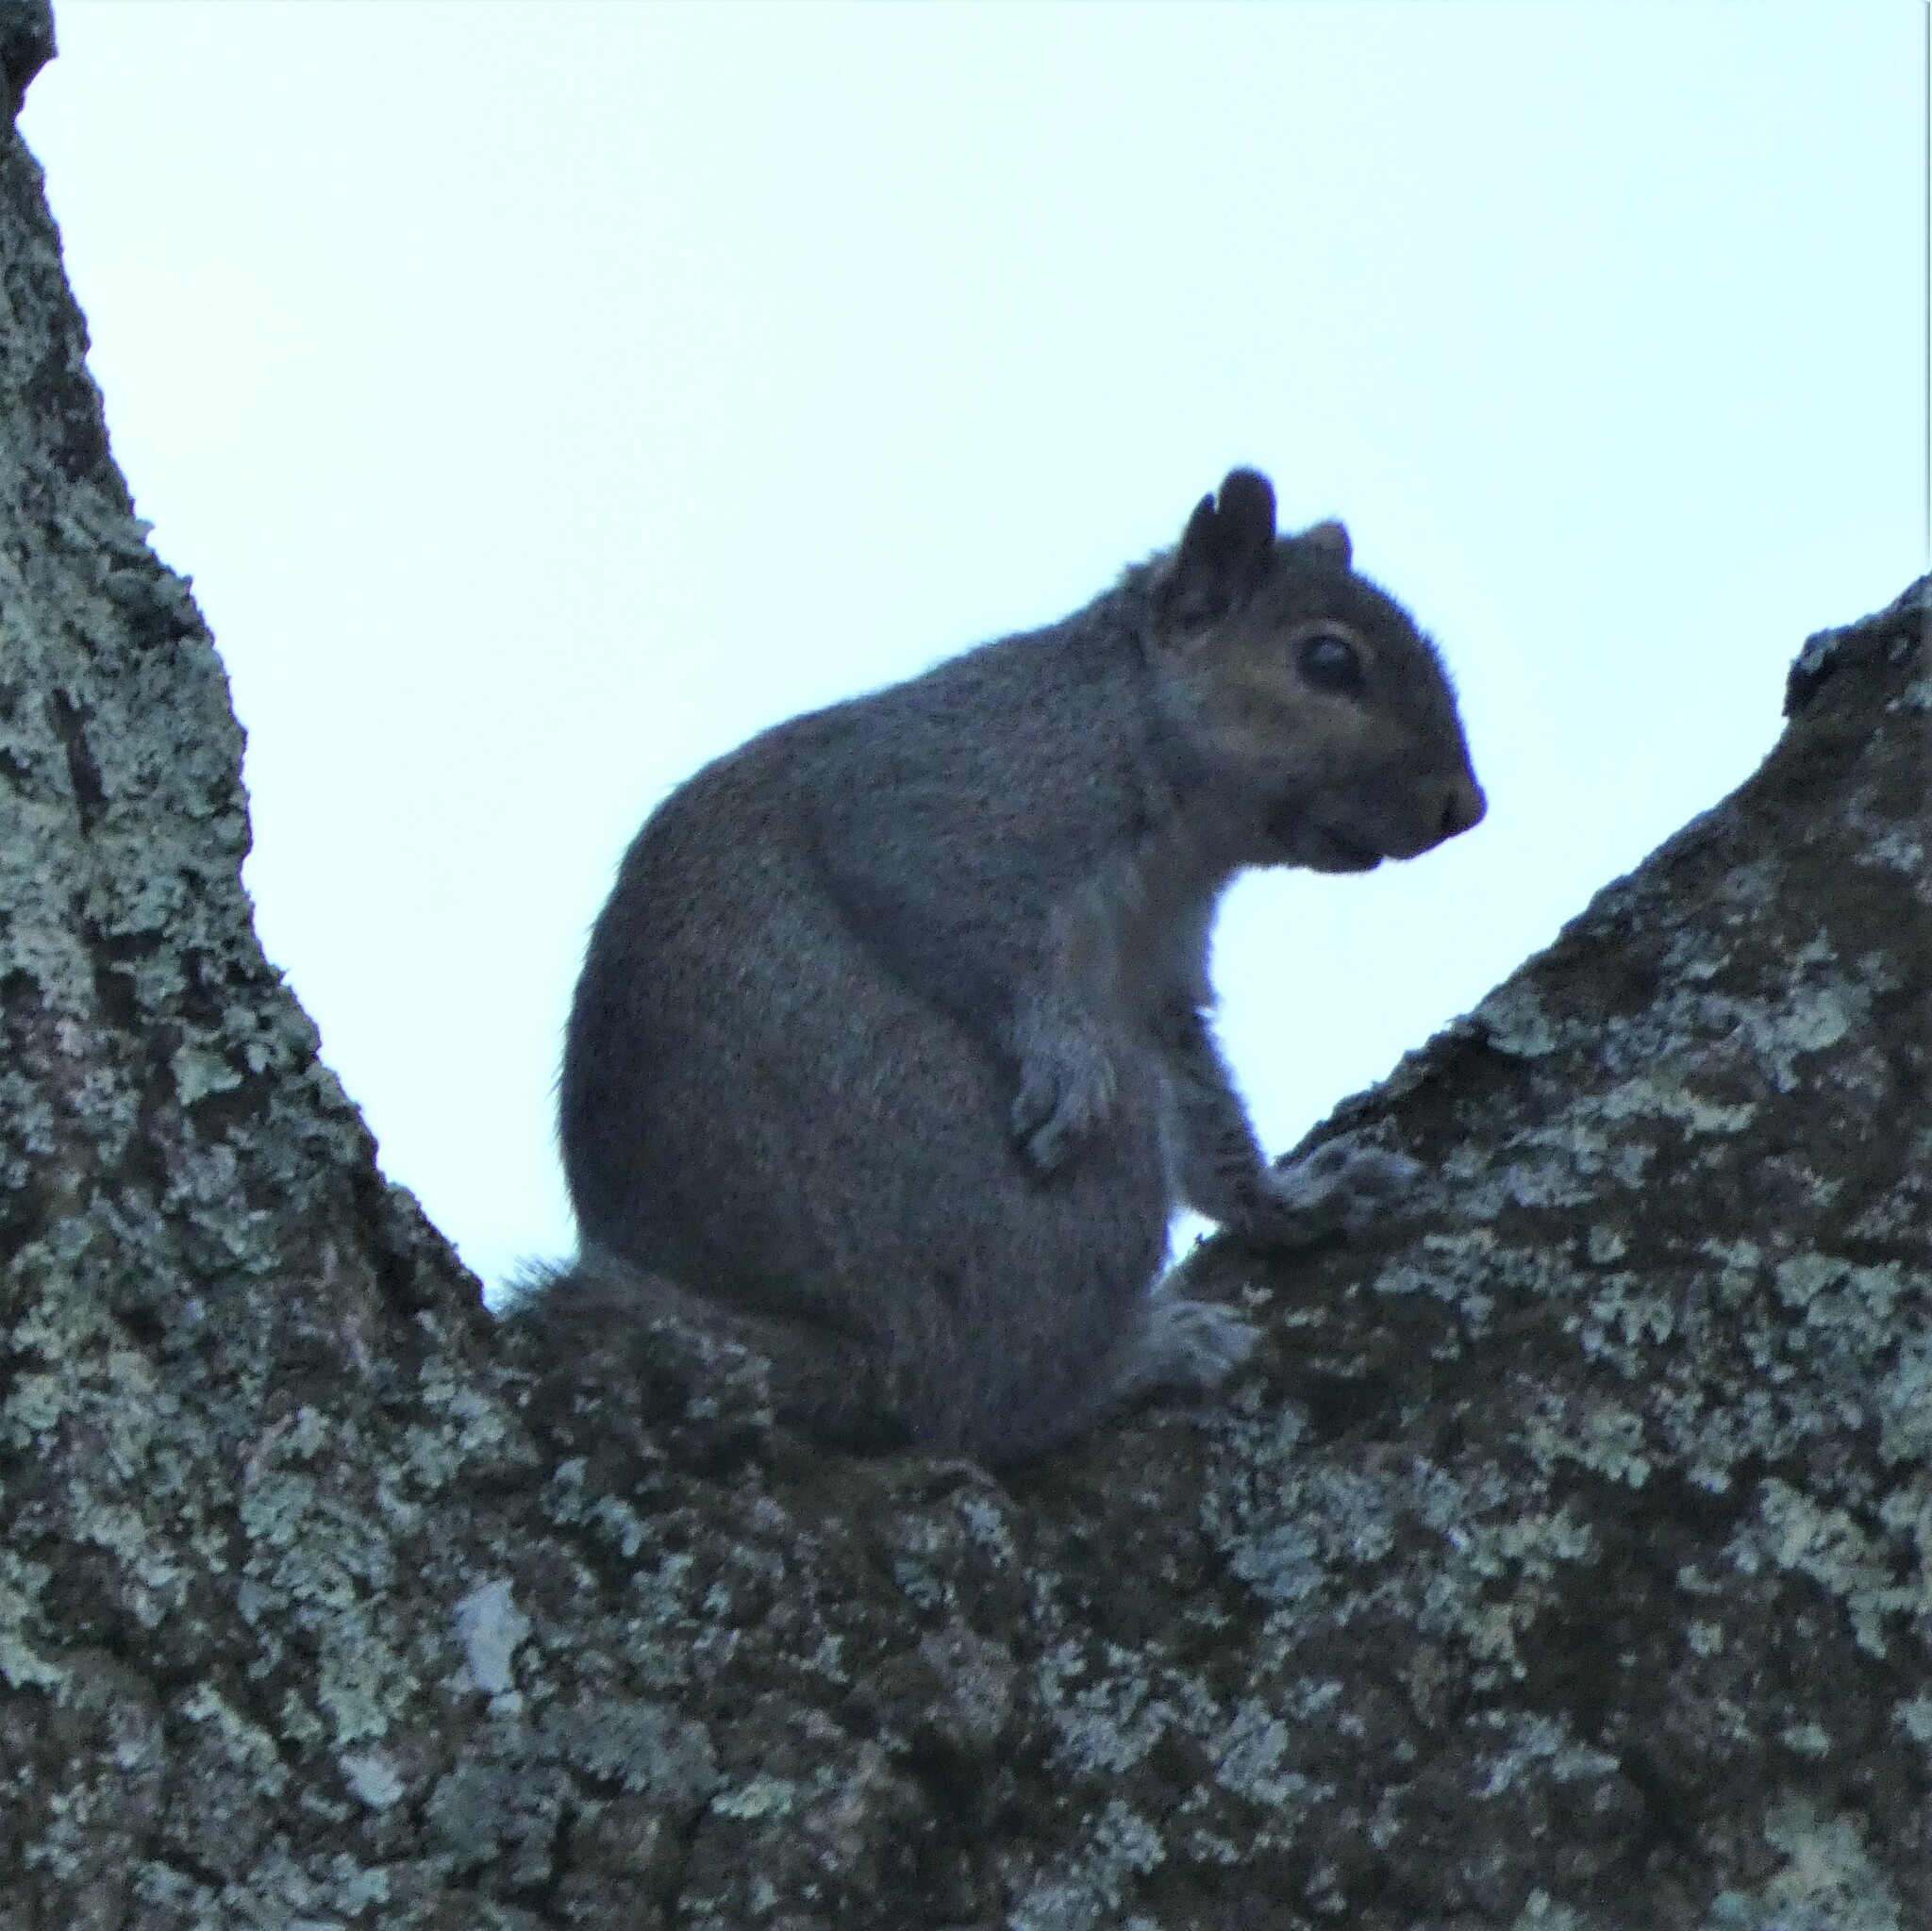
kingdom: Animalia
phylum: Chordata
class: Mammalia
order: Rodentia
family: Sciuridae
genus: Sciurus
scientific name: Sciurus carolinensis
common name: Eastern gray squirrel
